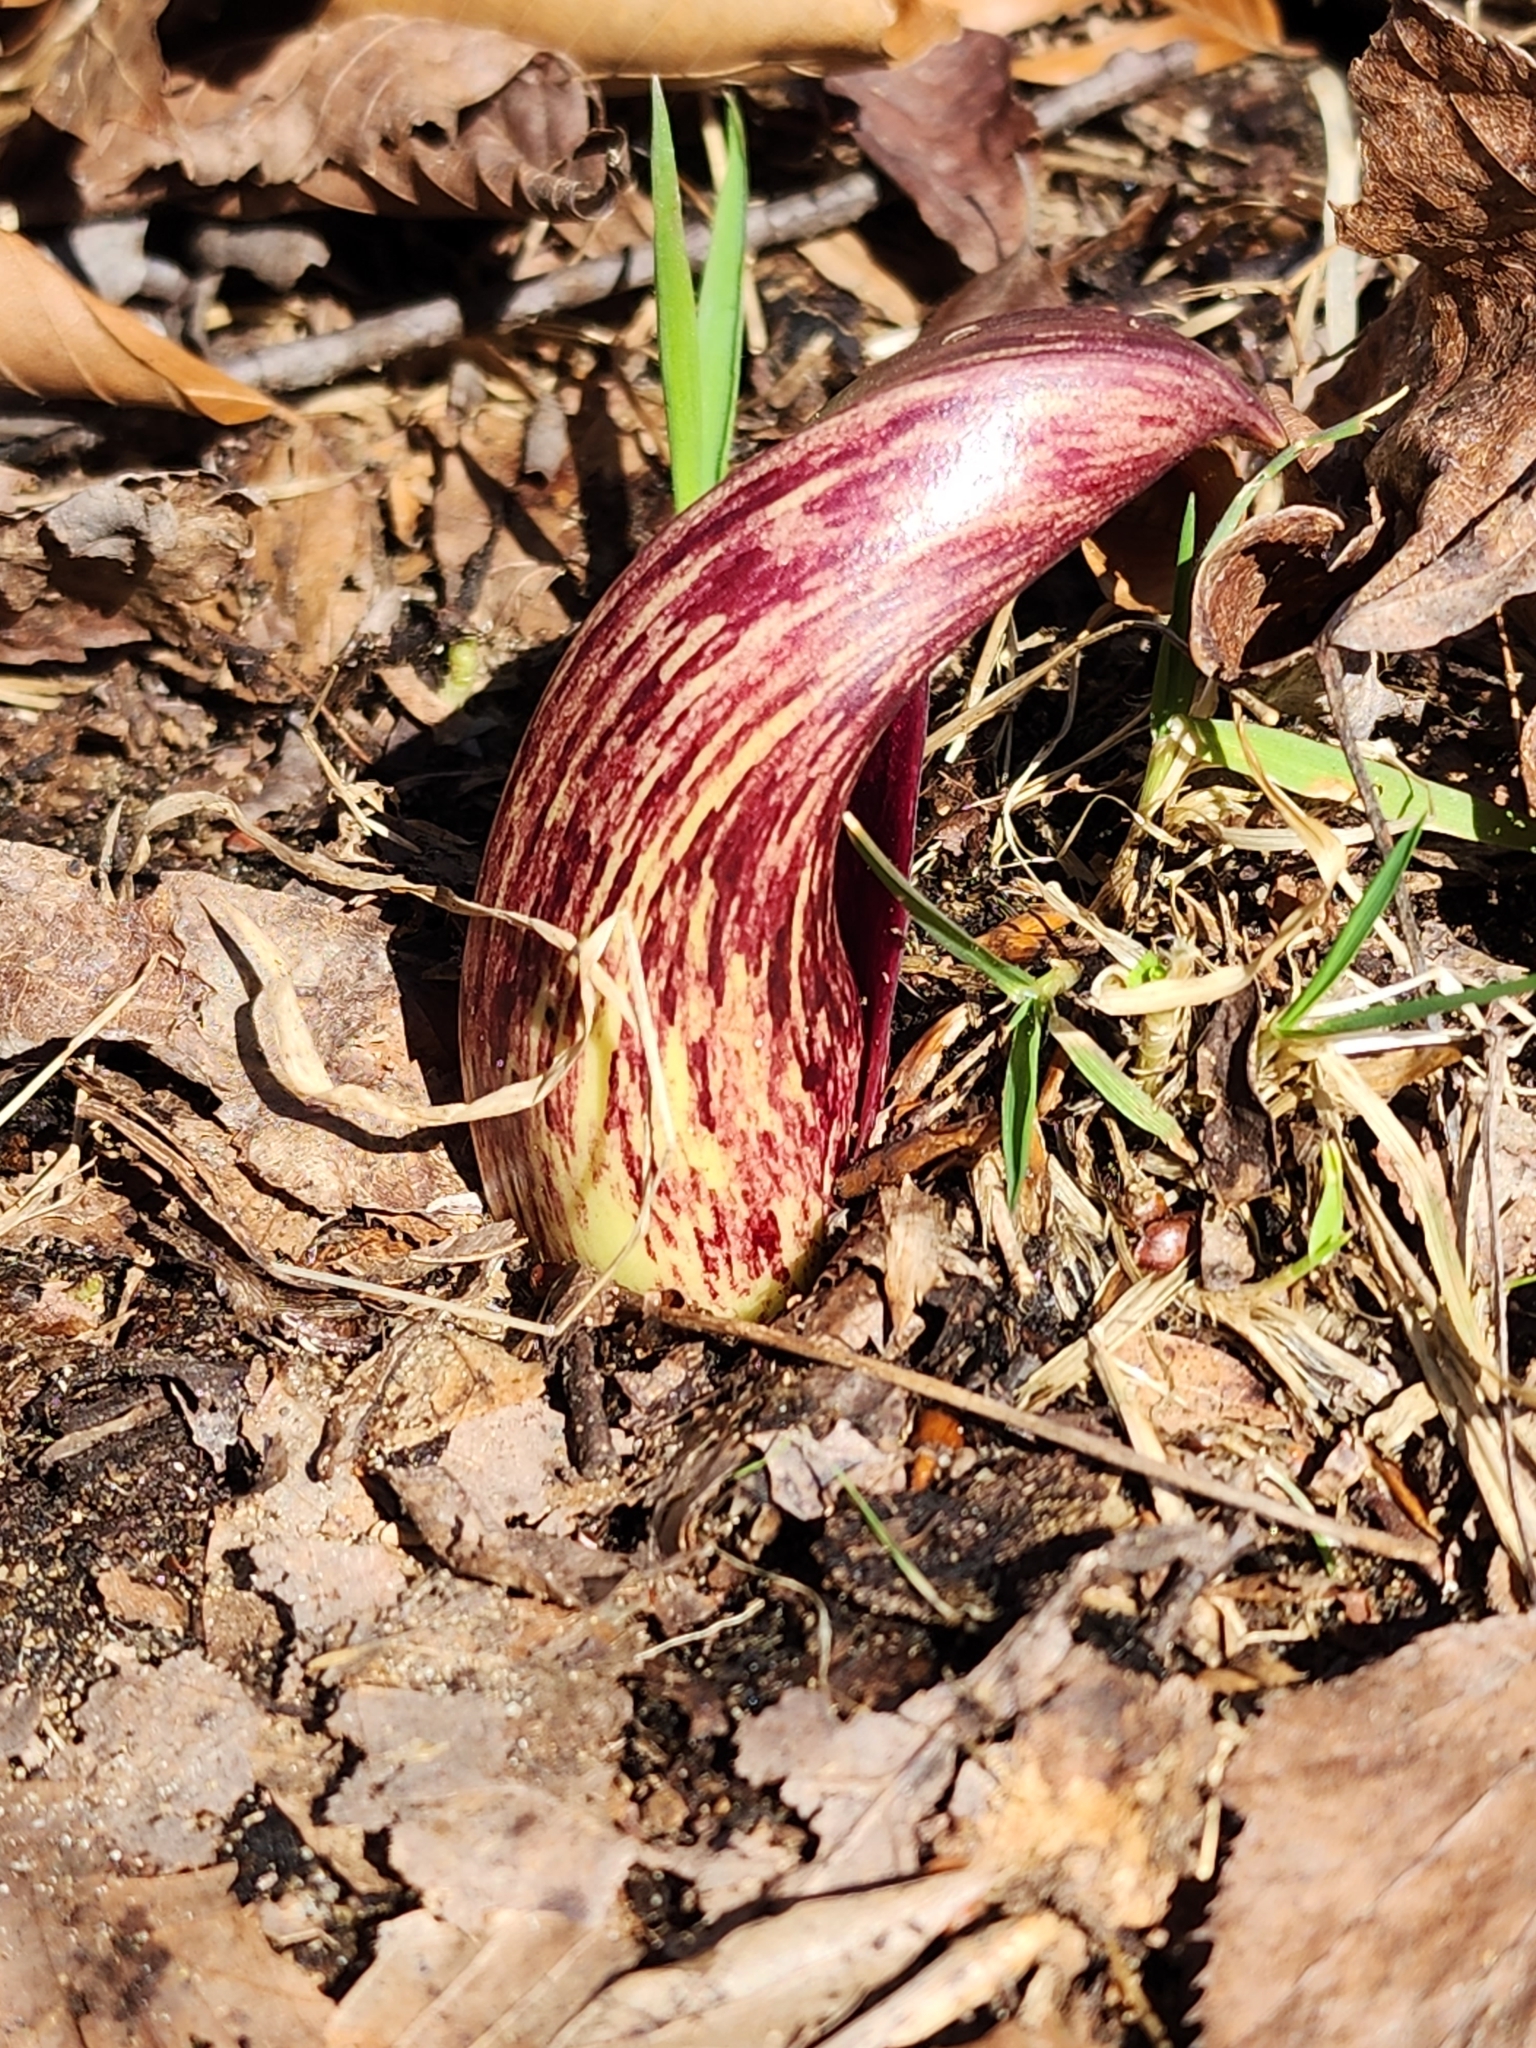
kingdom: Plantae
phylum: Tracheophyta
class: Liliopsida
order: Alismatales
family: Araceae
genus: Symplocarpus
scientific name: Symplocarpus foetidus
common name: Eastern skunk cabbage
